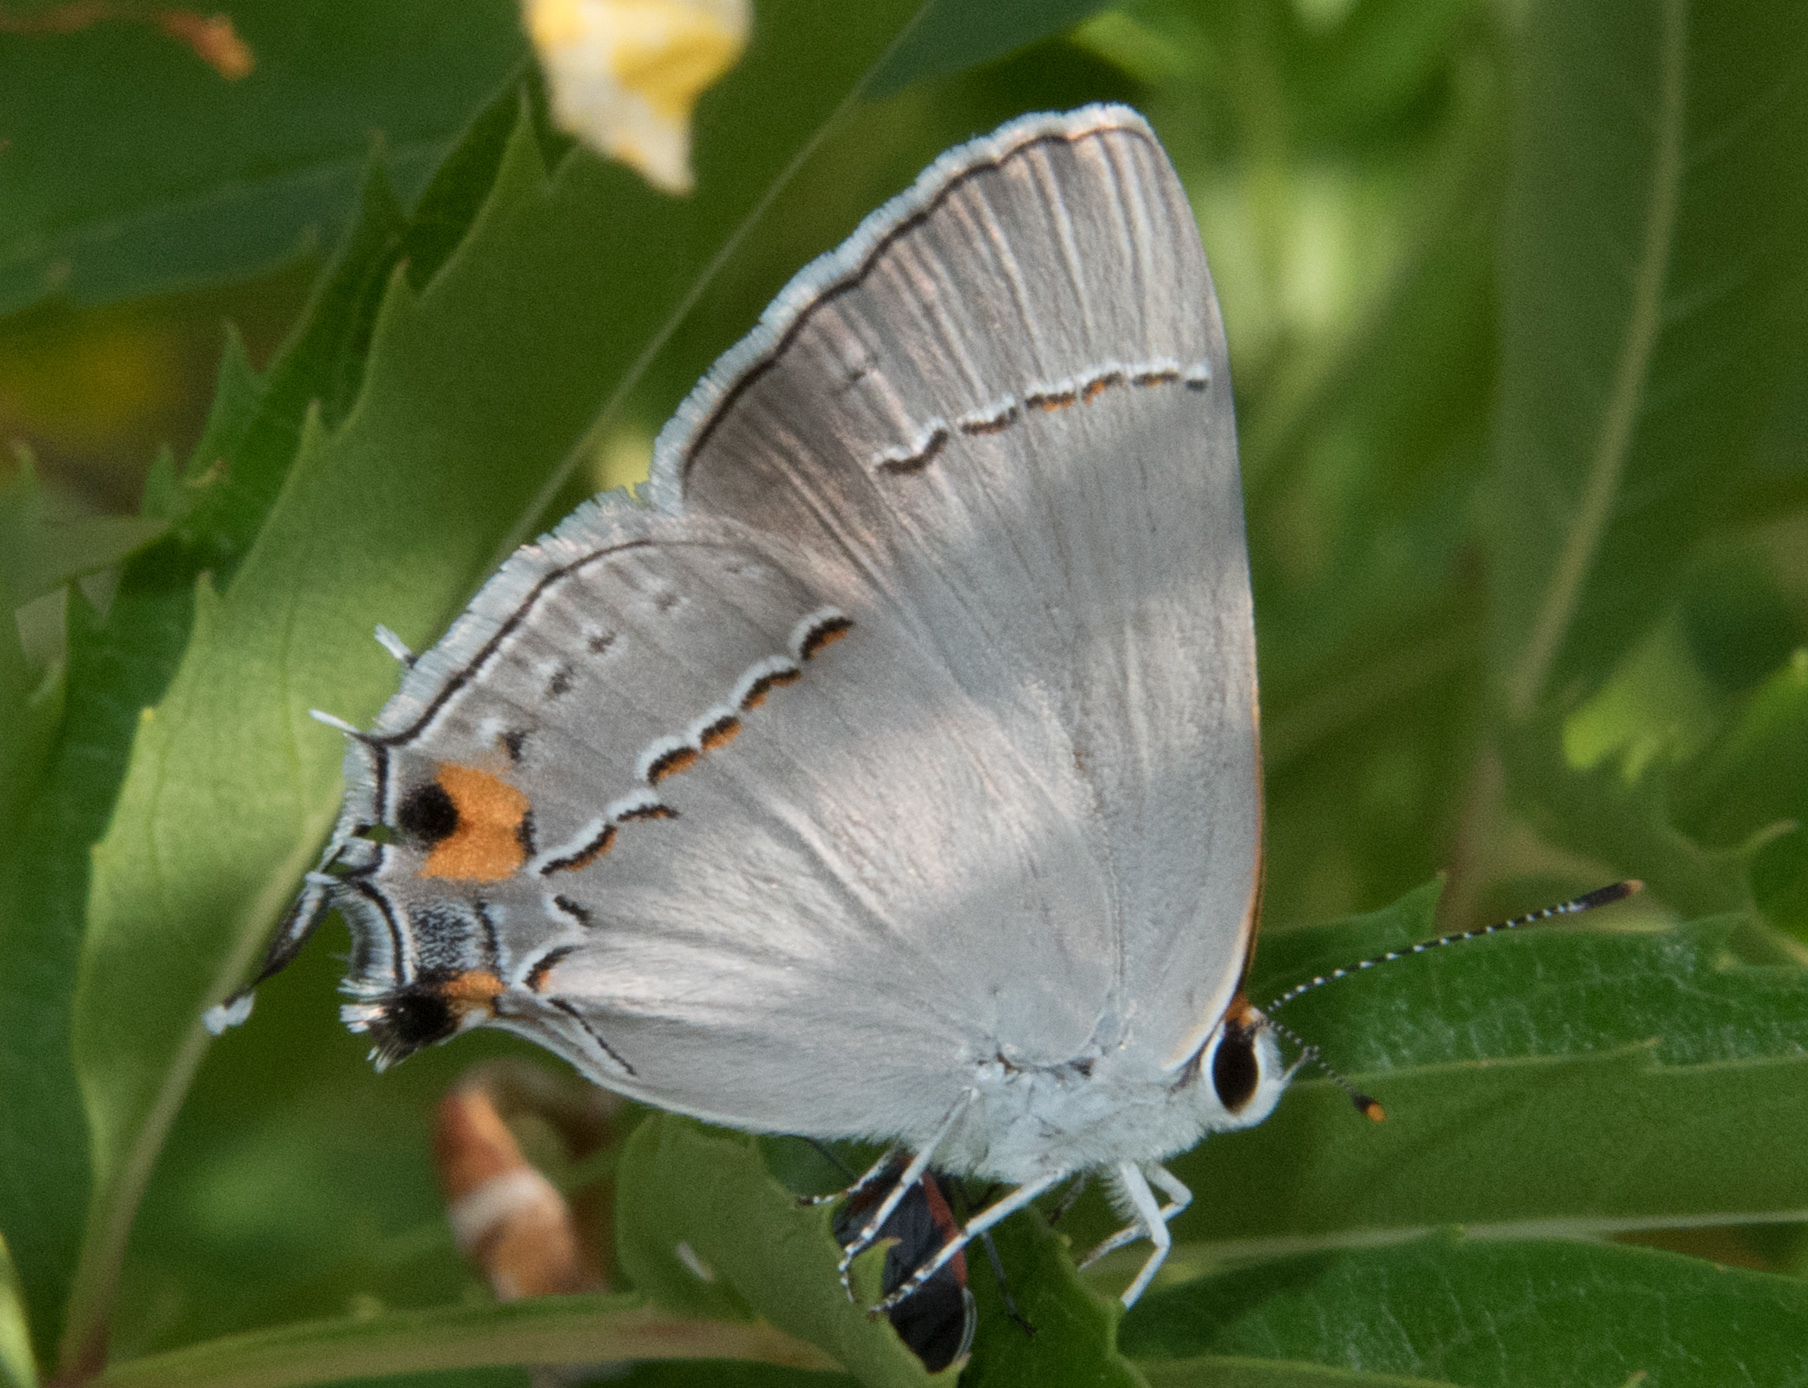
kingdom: Animalia
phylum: Arthropoda
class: Insecta
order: Lepidoptera
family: Lycaenidae
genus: Strymon
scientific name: Strymon melinus
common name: Gray hairstreak
